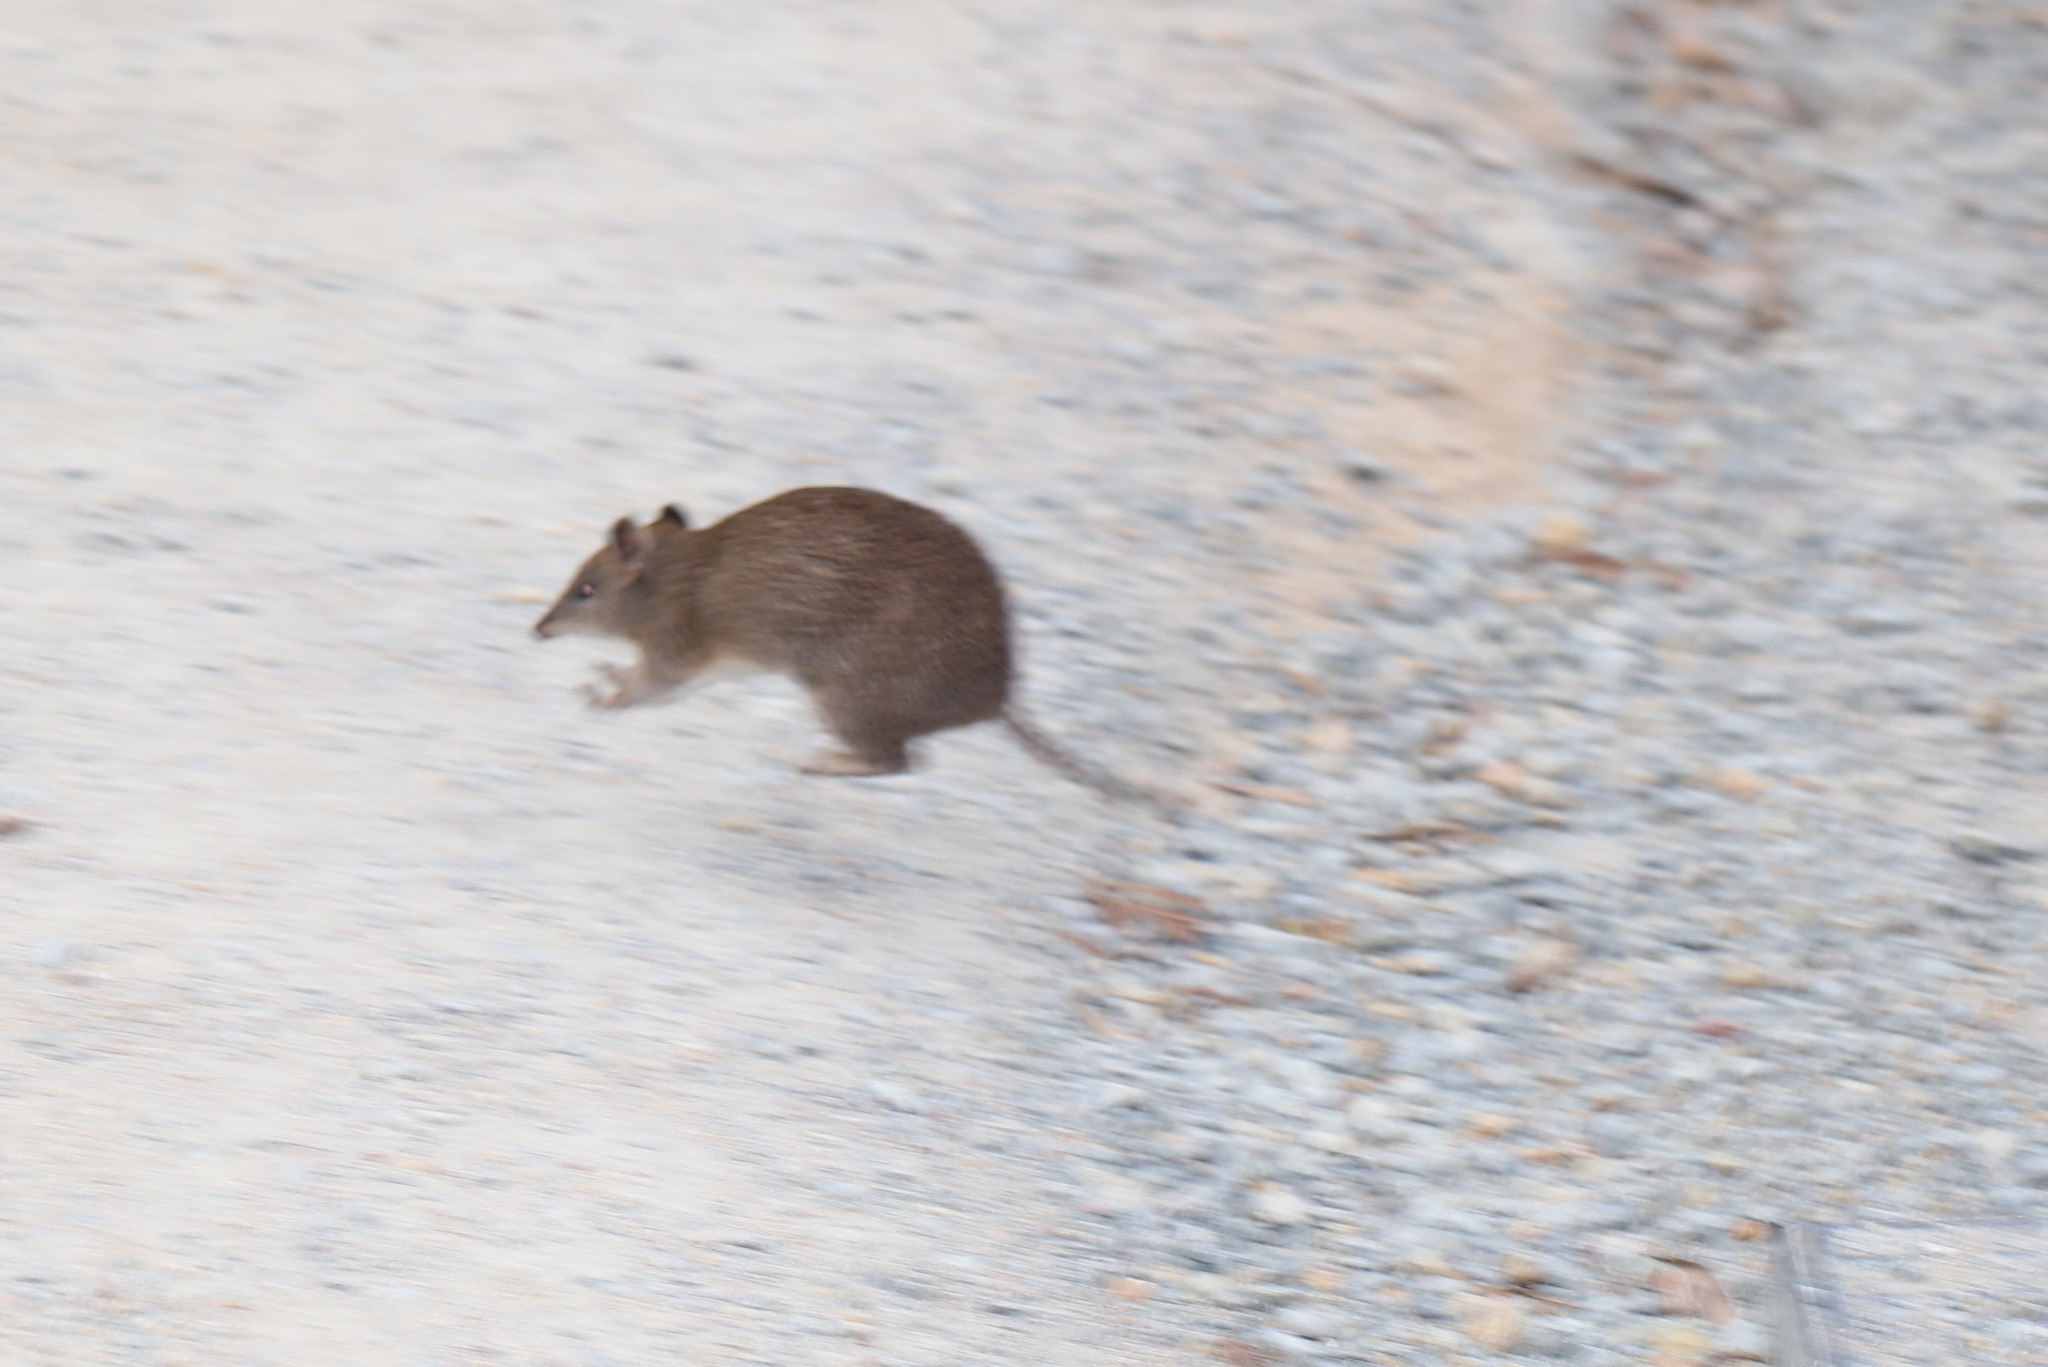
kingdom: Animalia
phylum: Chordata
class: Mammalia
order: Peramelemorphia
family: Peramelidae
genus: Isoodon
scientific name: Isoodon obesulus
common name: Southern brown bandicoot
